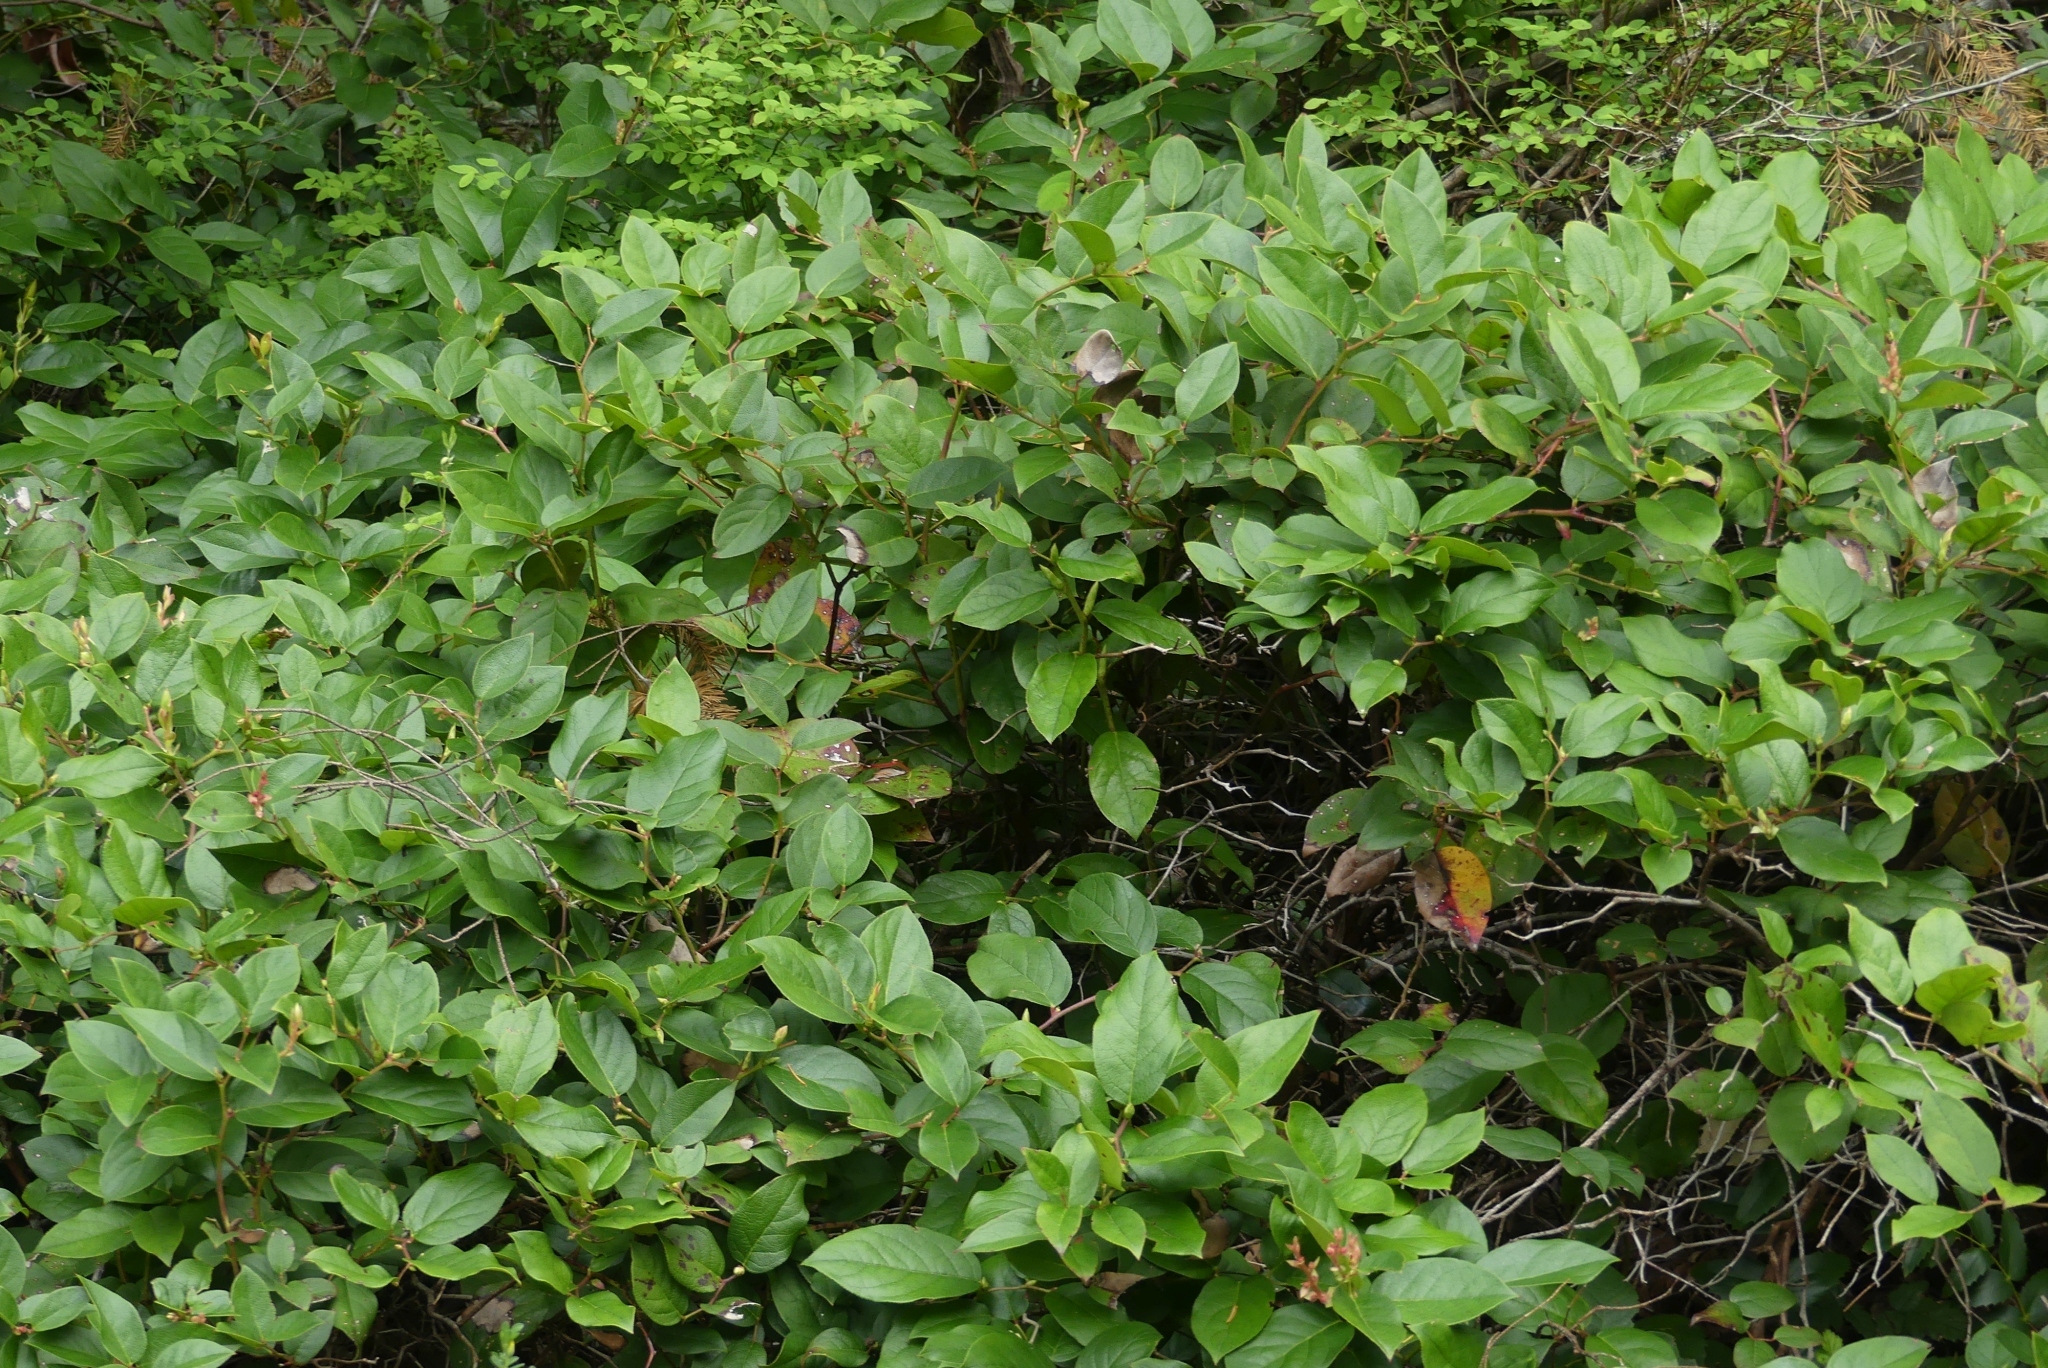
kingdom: Plantae
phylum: Tracheophyta
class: Magnoliopsida
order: Ericales
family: Ericaceae
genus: Gaultheria
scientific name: Gaultheria shallon
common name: Shallon
